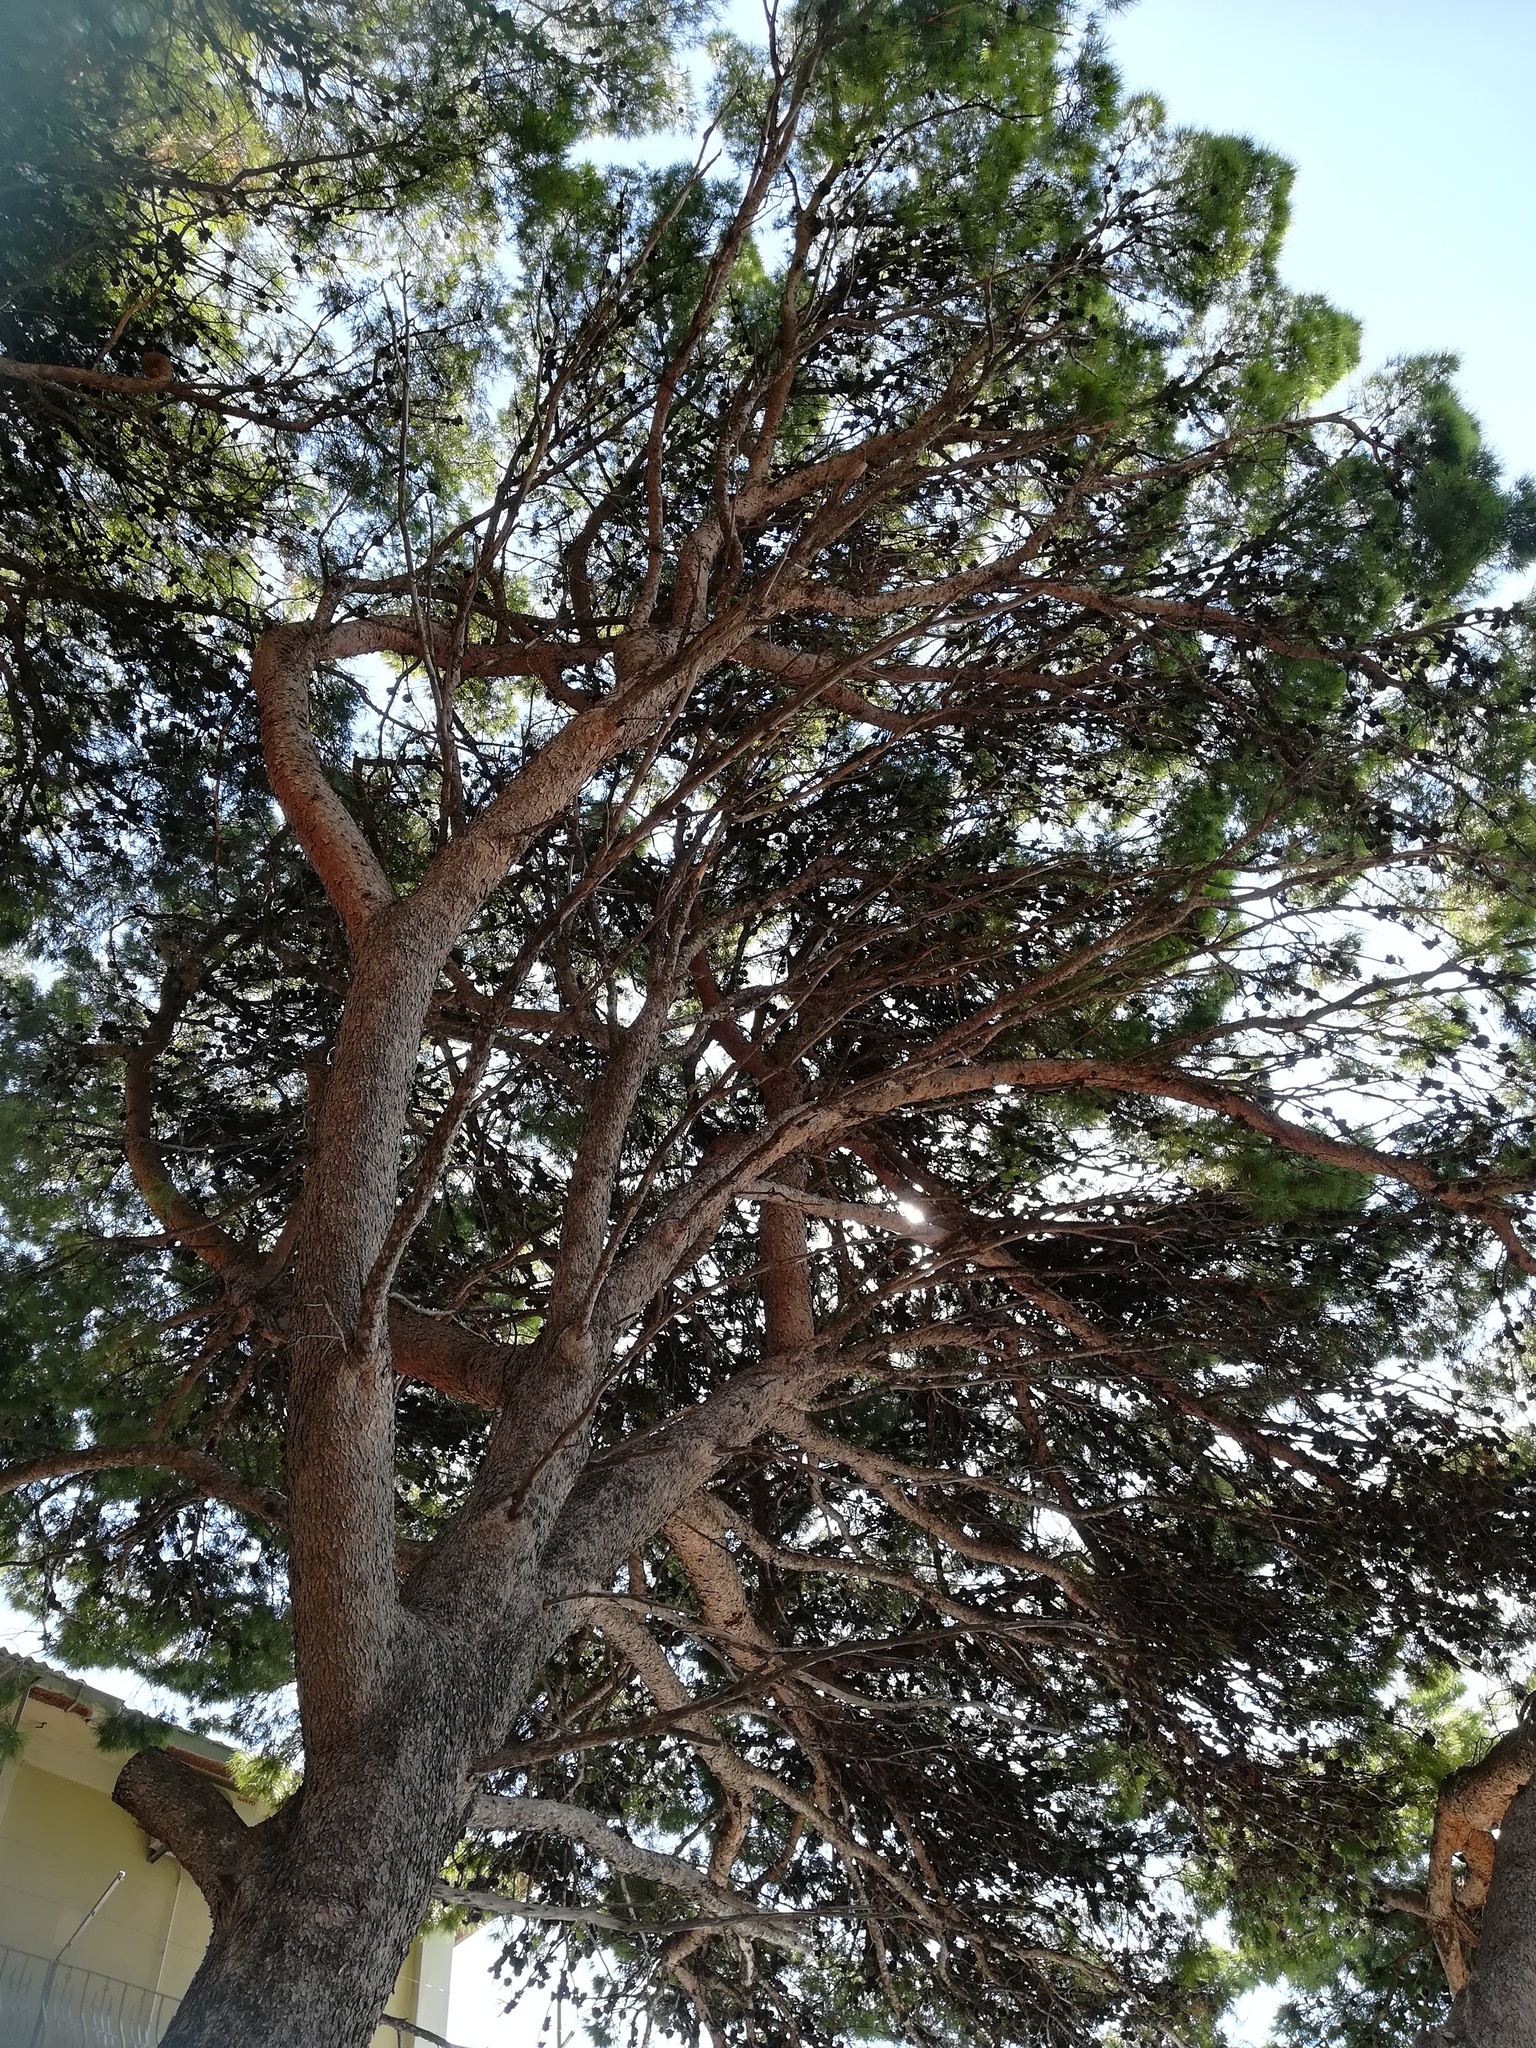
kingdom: Plantae
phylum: Tracheophyta
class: Pinopsida
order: Pinales
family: Pinaceae
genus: Pinus
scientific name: Pinus halepensis
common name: Aleppo pine
